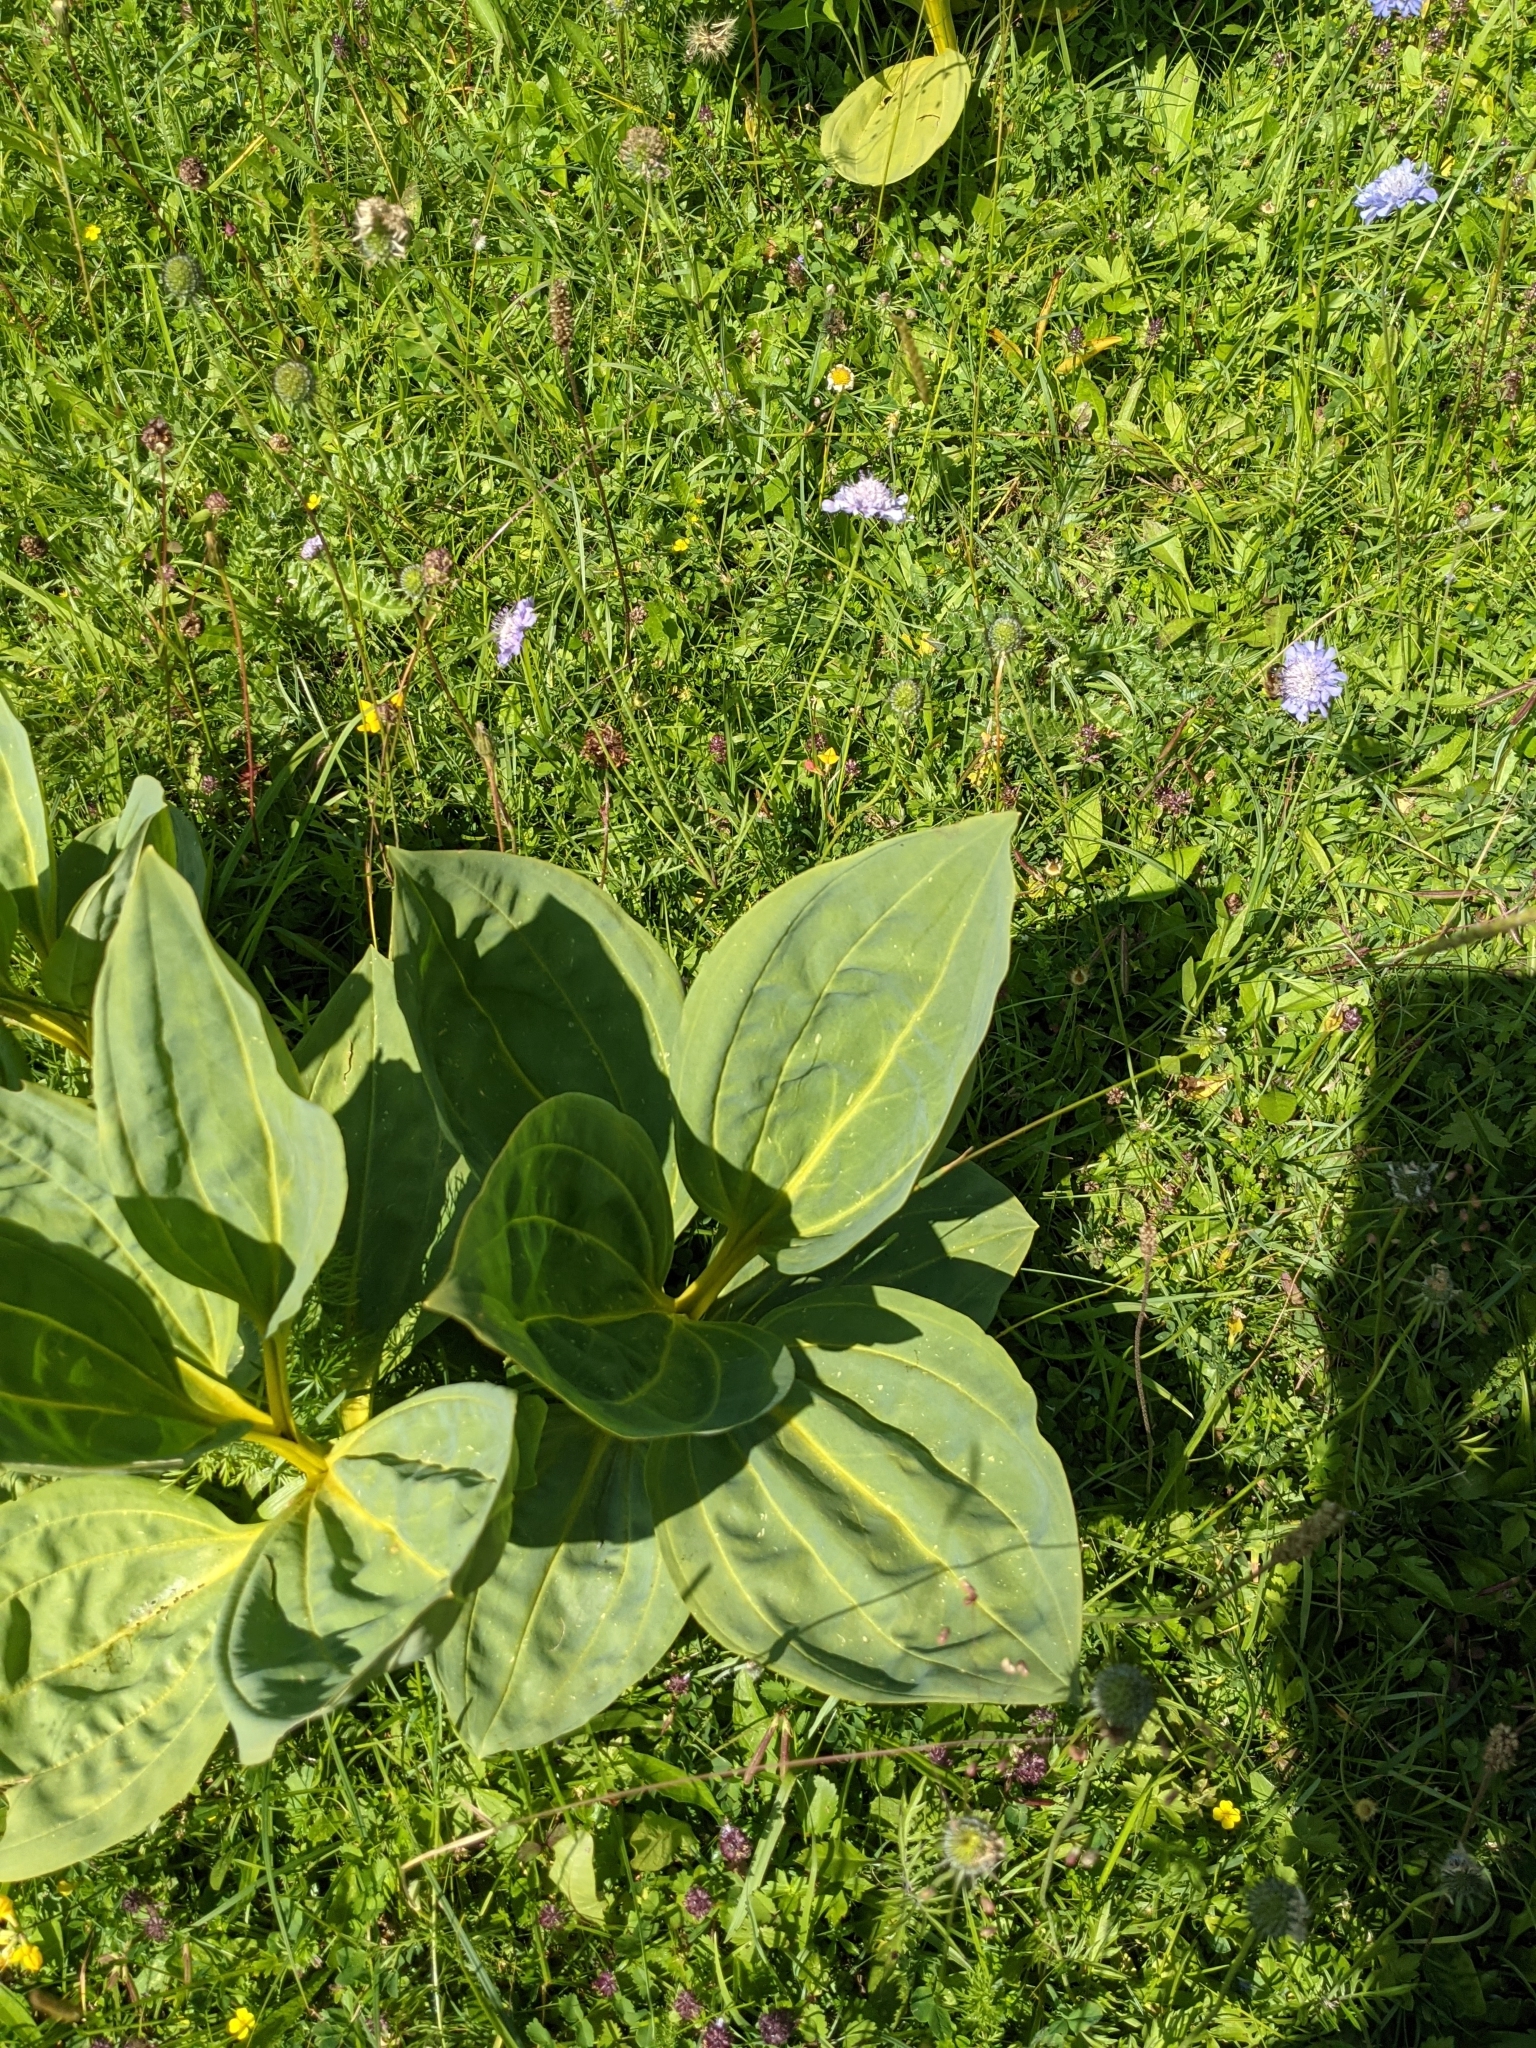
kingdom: Plantae
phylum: Tracheophyta
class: Magnoliopsida
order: Gentianales
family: Gentianaceae
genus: Gentiana
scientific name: Gentiana lutea
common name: Great yellow gentian
